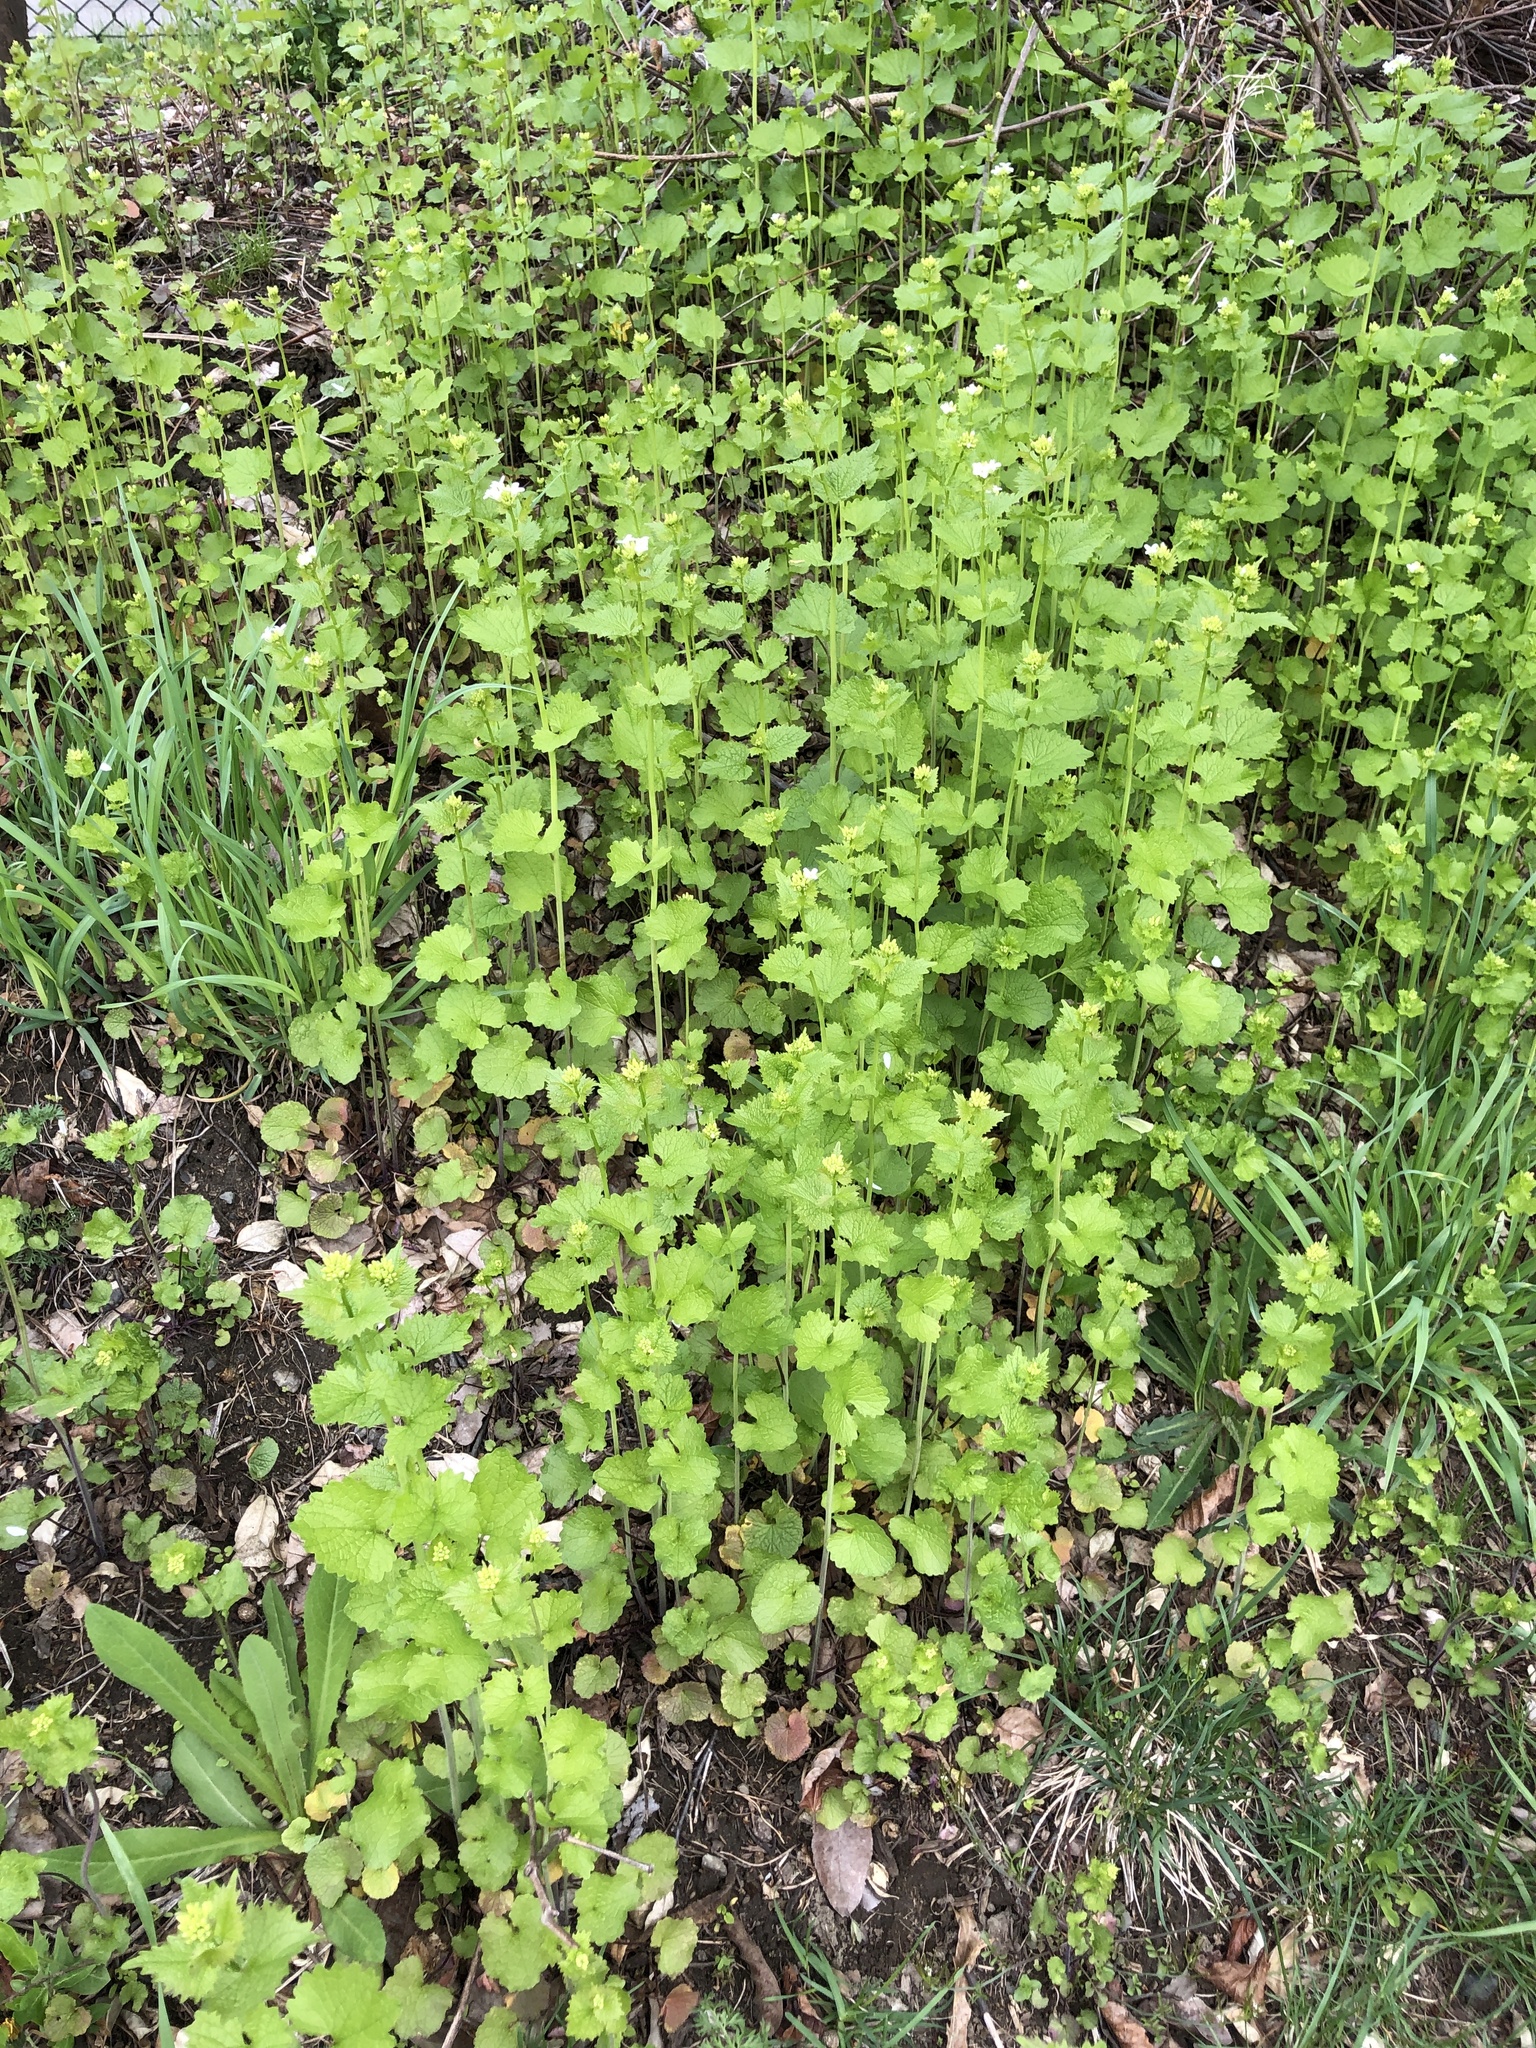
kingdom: Plantae
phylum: Tracheophyta
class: Magnoliopsida
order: Brassicales
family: Brassicaceae
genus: Alliaria
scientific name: Alliaria petiolata
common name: Garlic mustard
